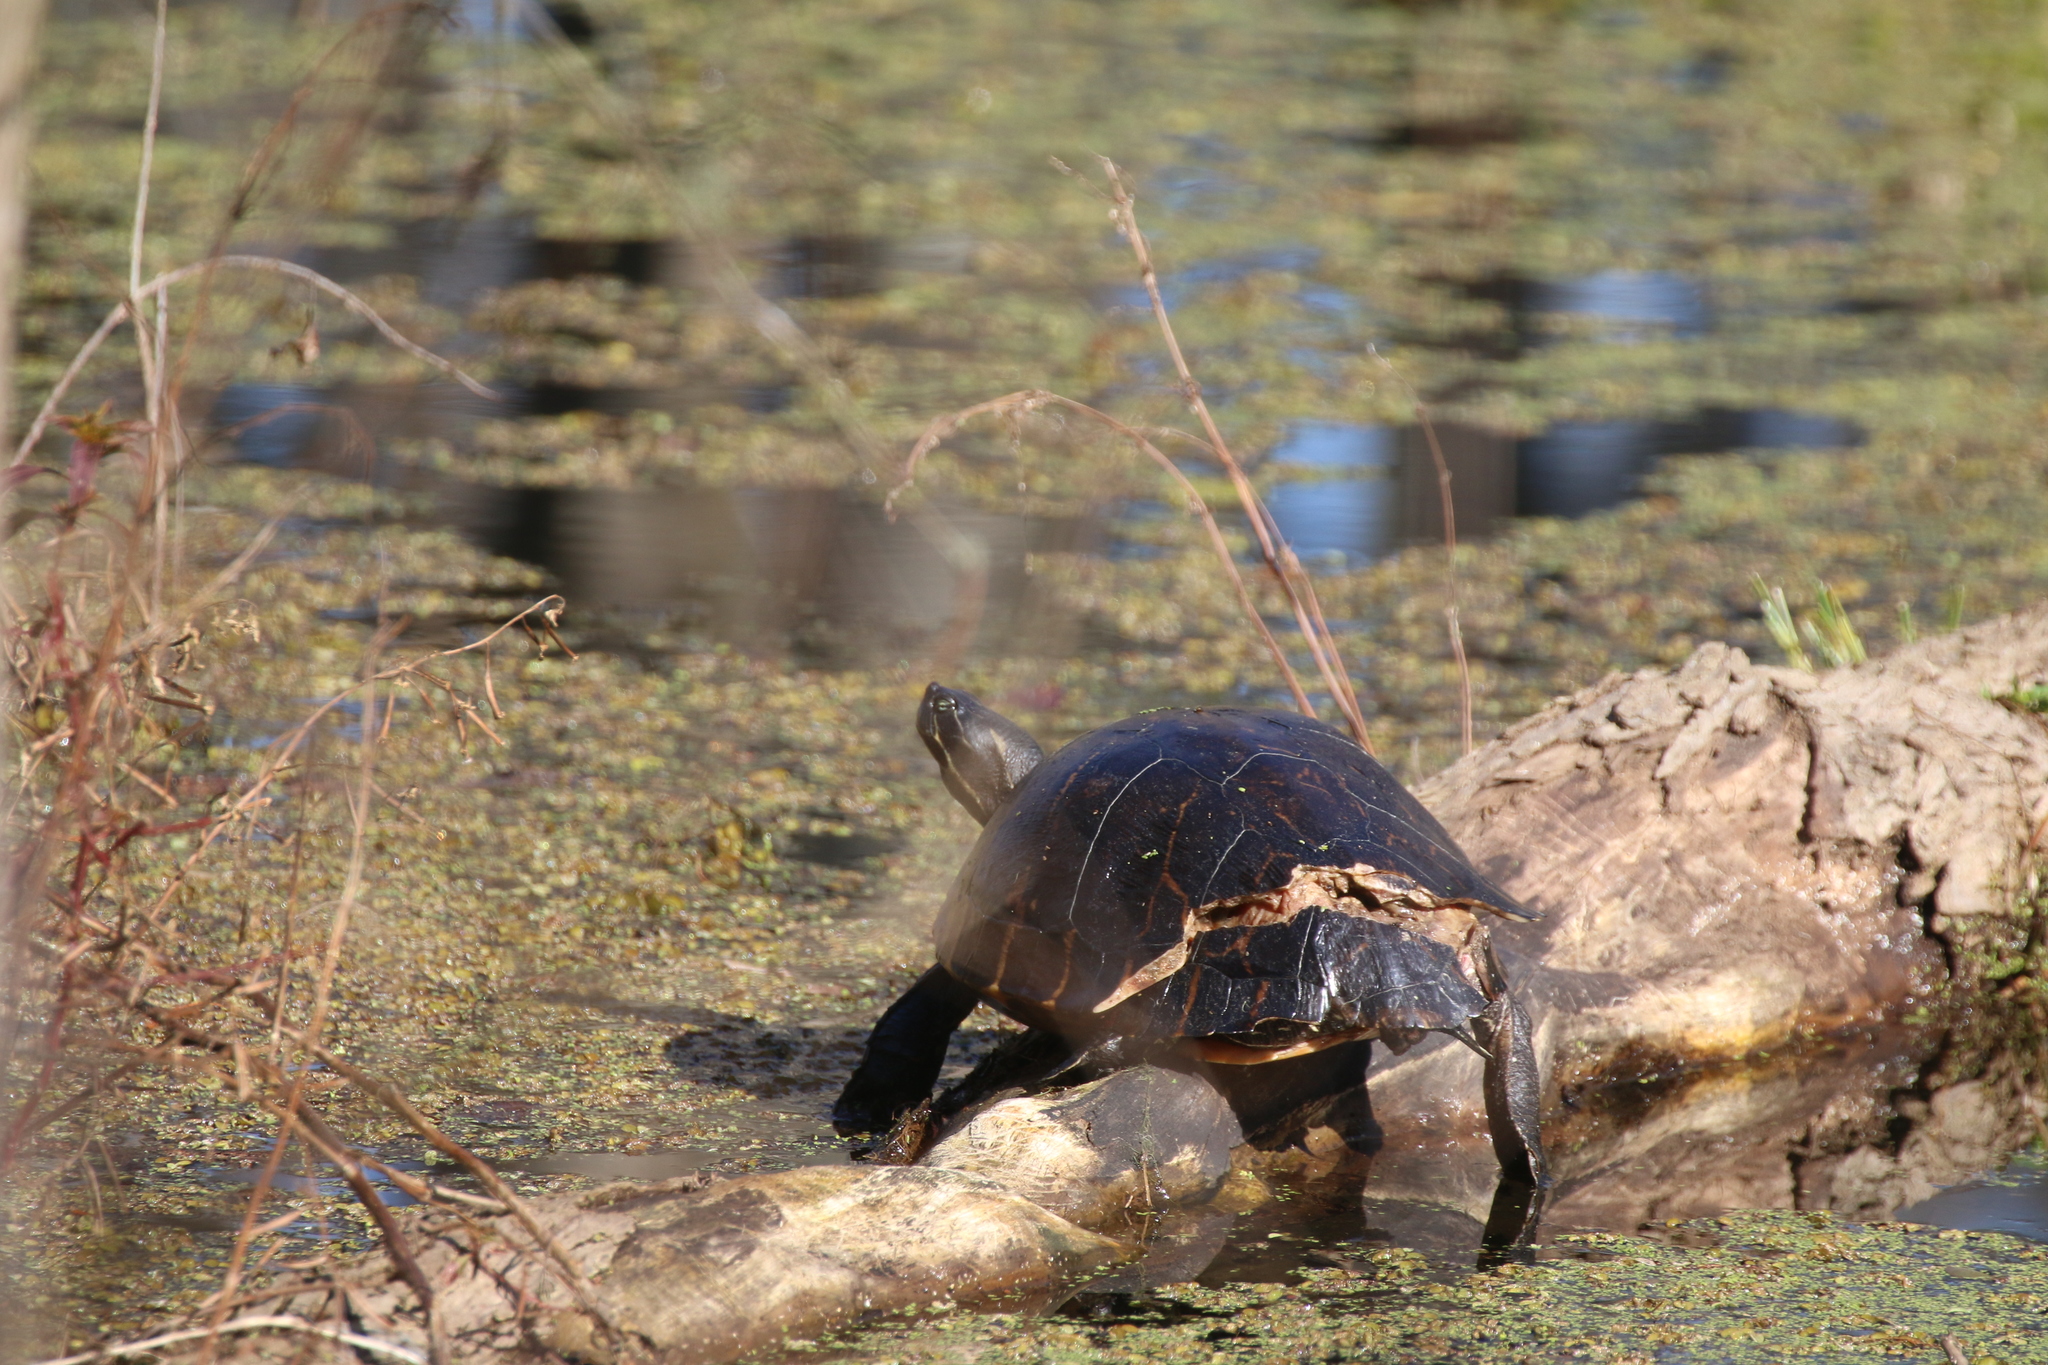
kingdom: Animalia
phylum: Chordata
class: Testudines
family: Emydidae
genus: Pseudemys
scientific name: Pseudemys concinna
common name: Eastern river cooter
